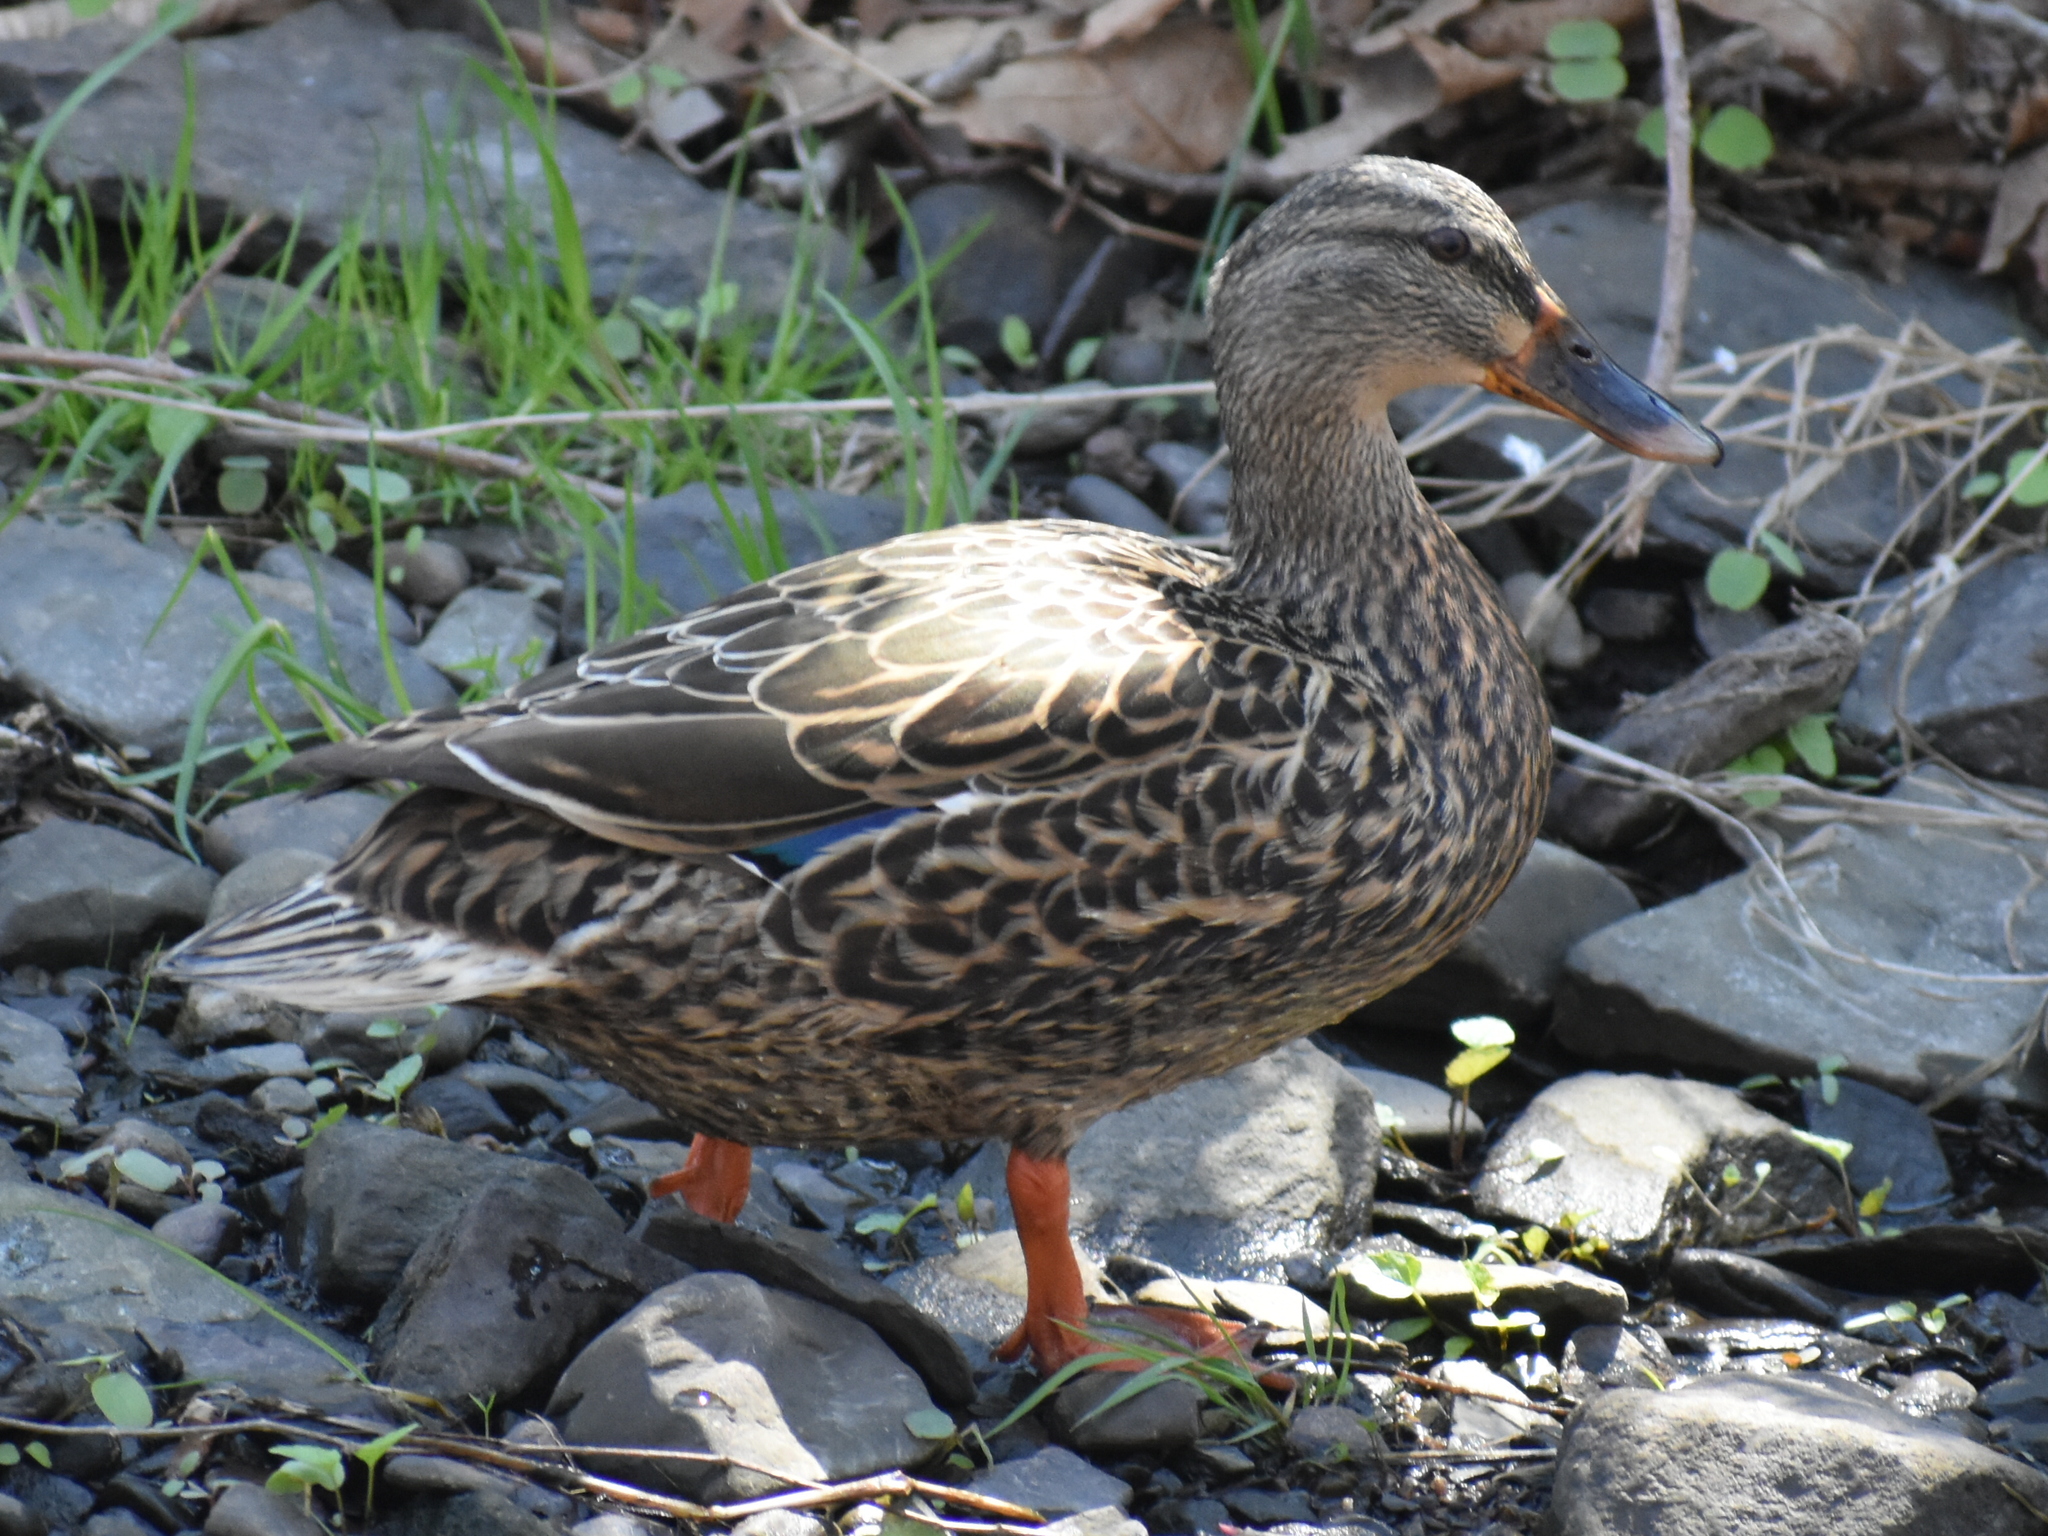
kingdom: Animalia
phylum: Chordata
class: Aves
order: Anseriformes
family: Anatidae
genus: Anas
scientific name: Anas platyrhynchos
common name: Mallard
